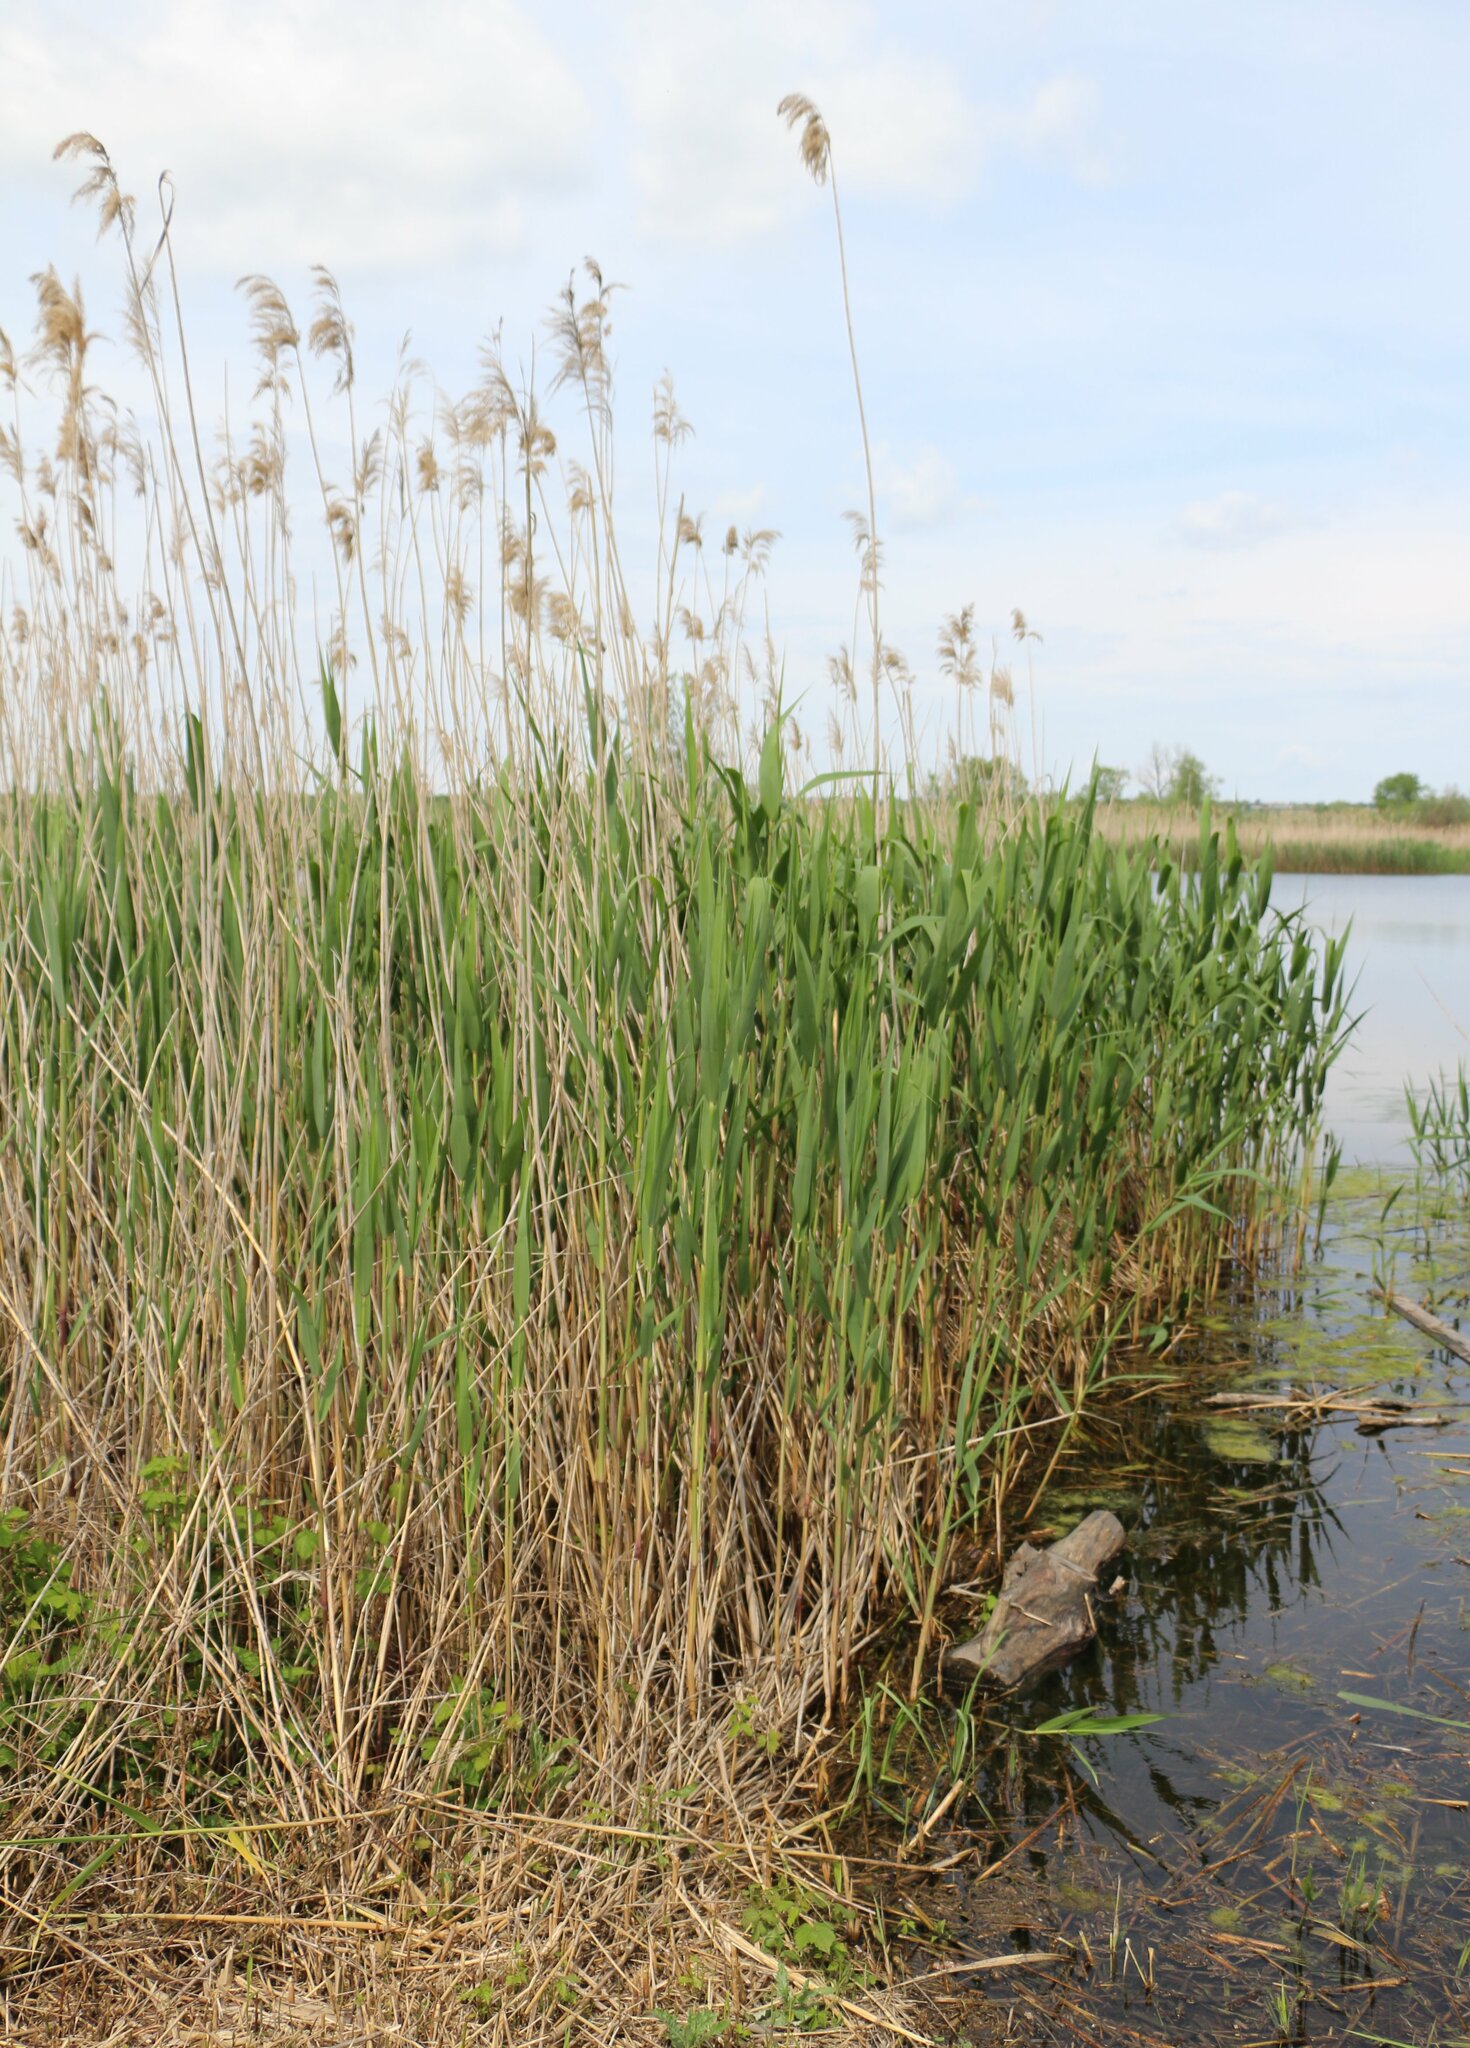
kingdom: Plantae
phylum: Tracheophyta
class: Liliopsida
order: Poales
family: Poaceae
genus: Phragmites
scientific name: Phragmites australis
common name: Common reed
